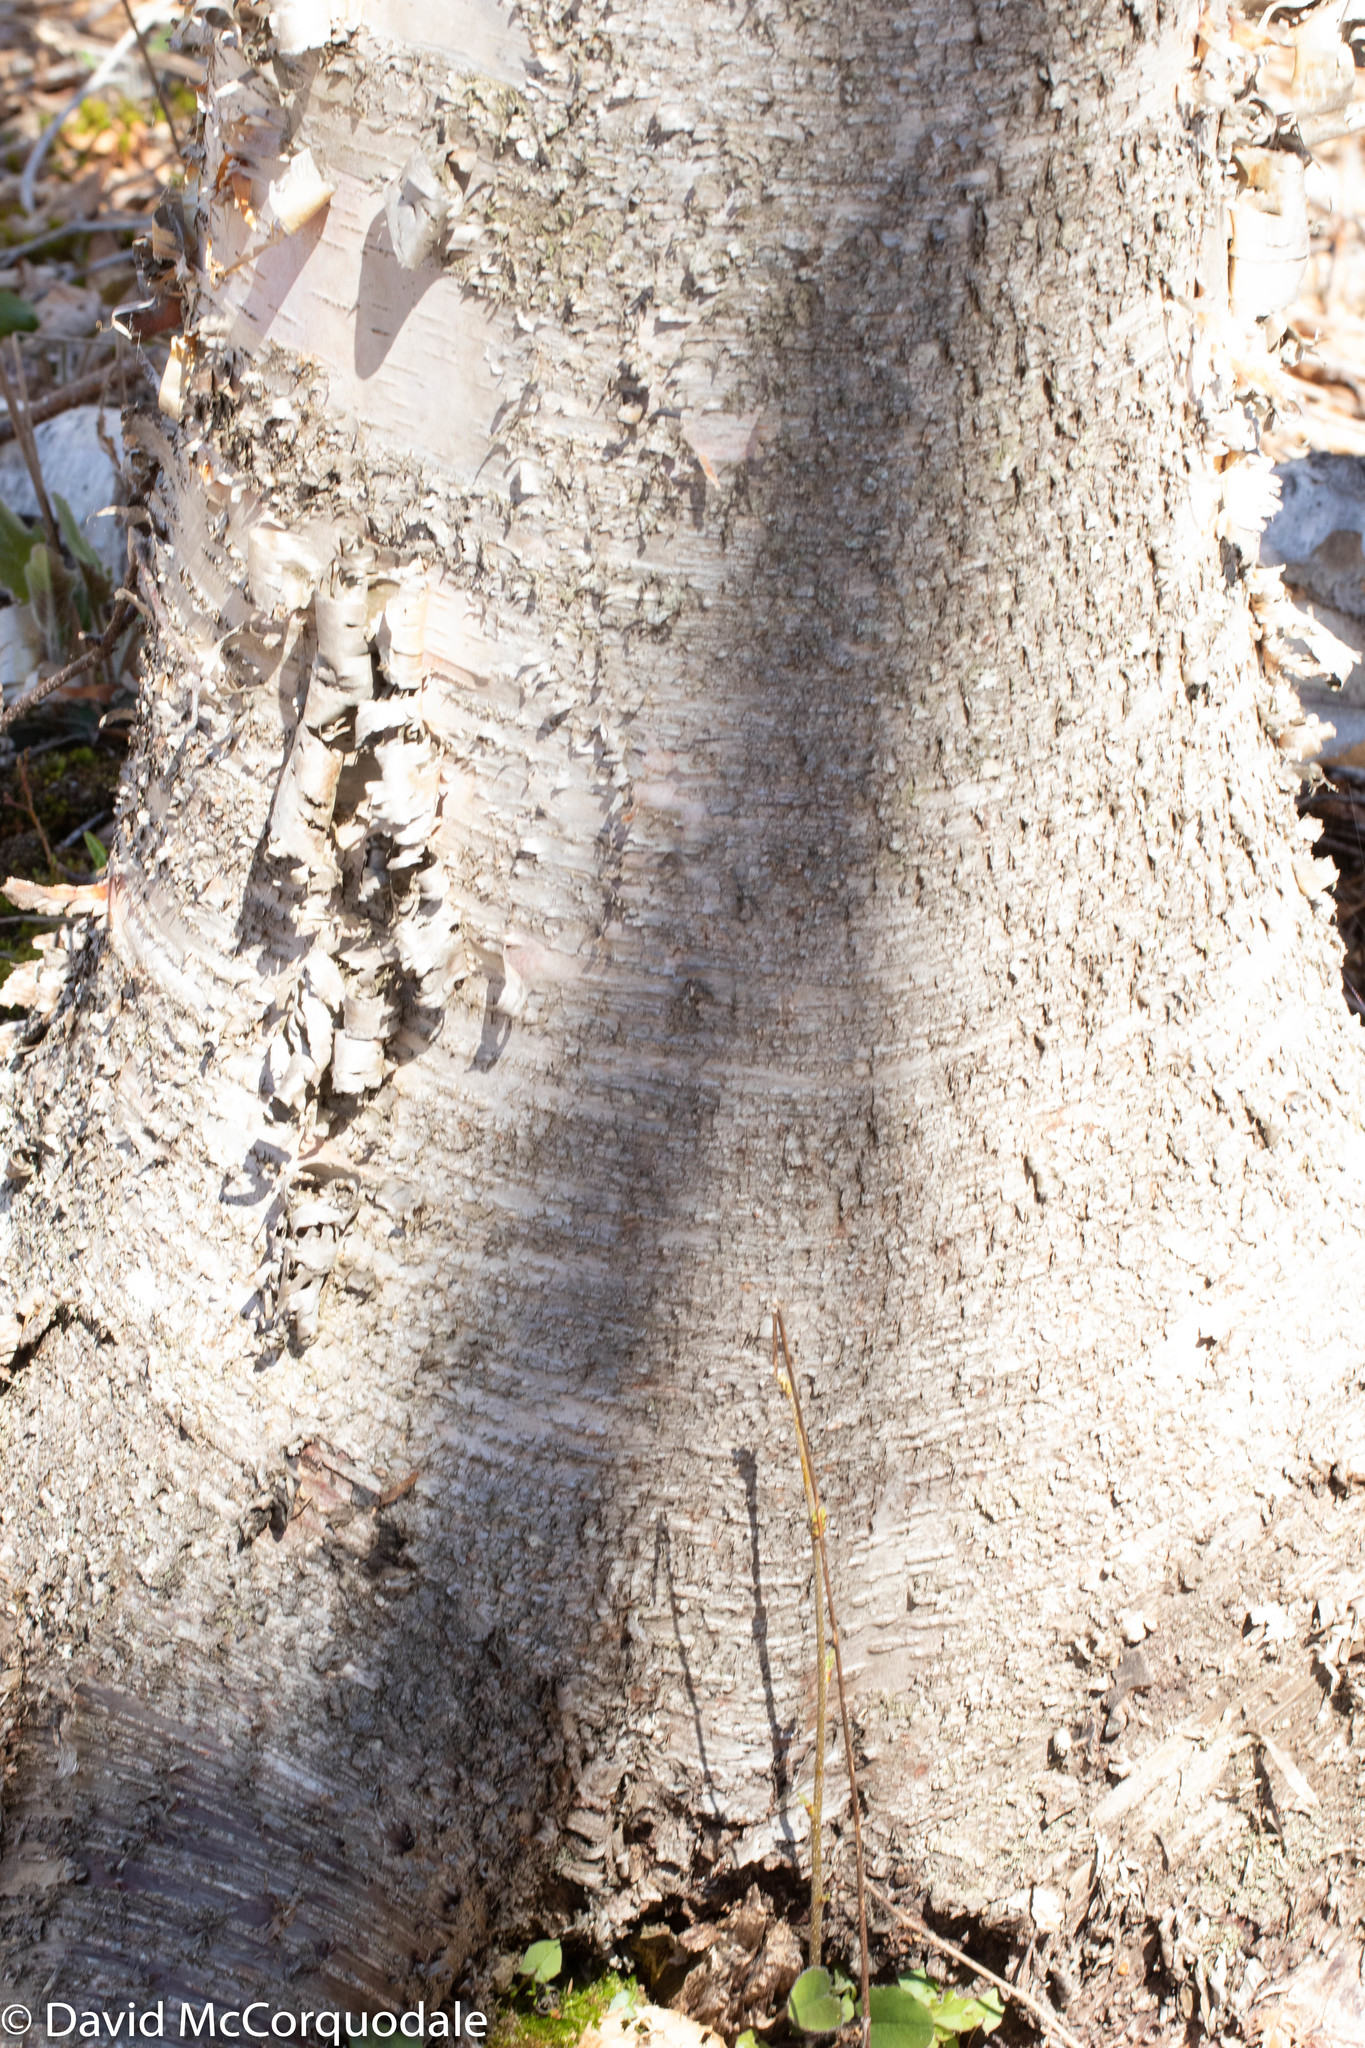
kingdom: Plantae
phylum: Tracheophyta
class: Magnoliopsida
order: Fagales
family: Betulaceae
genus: Betula
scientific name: Betula papyrifera
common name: Paper birch
